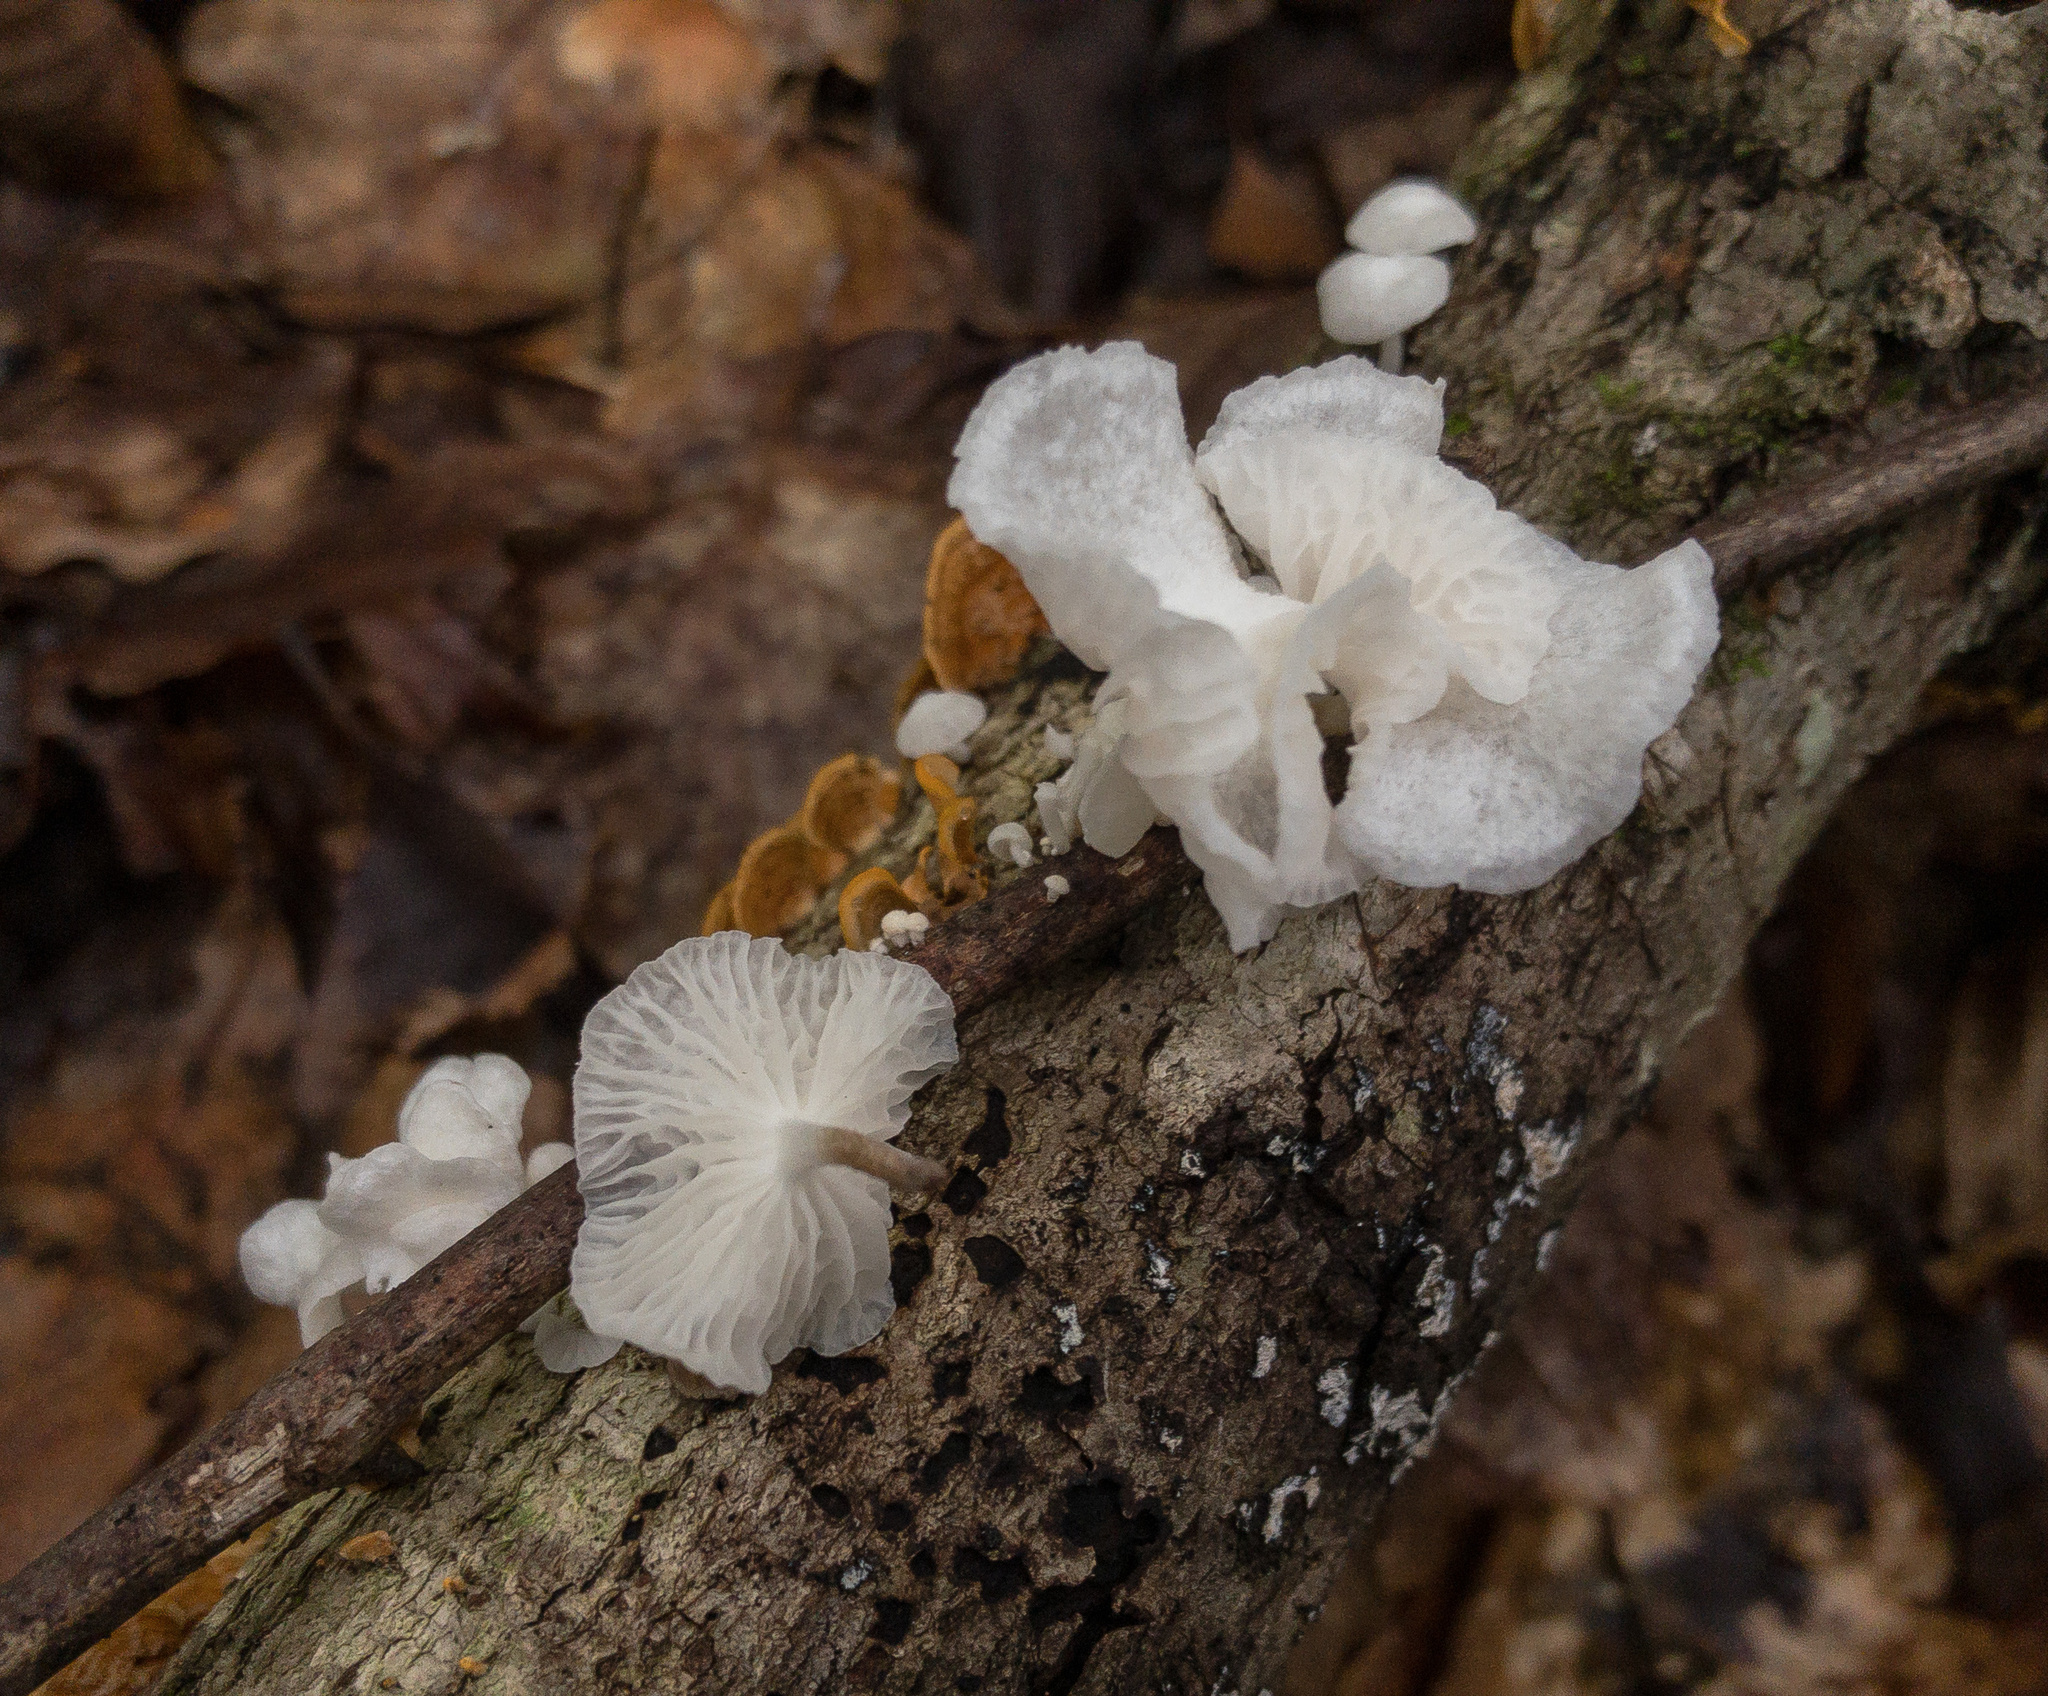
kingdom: Fungi
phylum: Basidiomycota
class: Agaricomycetes
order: Agaricales
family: Omphalotaceae
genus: Marasmiellus
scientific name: Marasmiellus candidus
